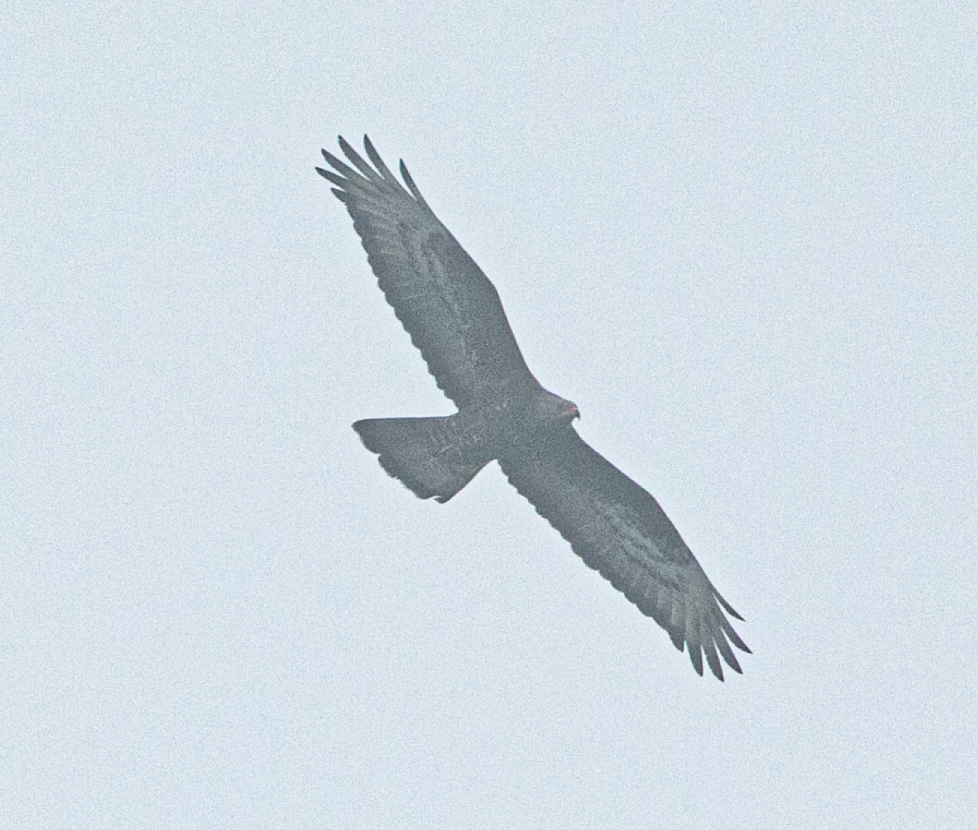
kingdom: Animalia
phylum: Chordata
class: Aves
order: Accipitriformes
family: Accipitridae
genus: Pernis
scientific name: Pernis apivorus
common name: European honey buzzard
